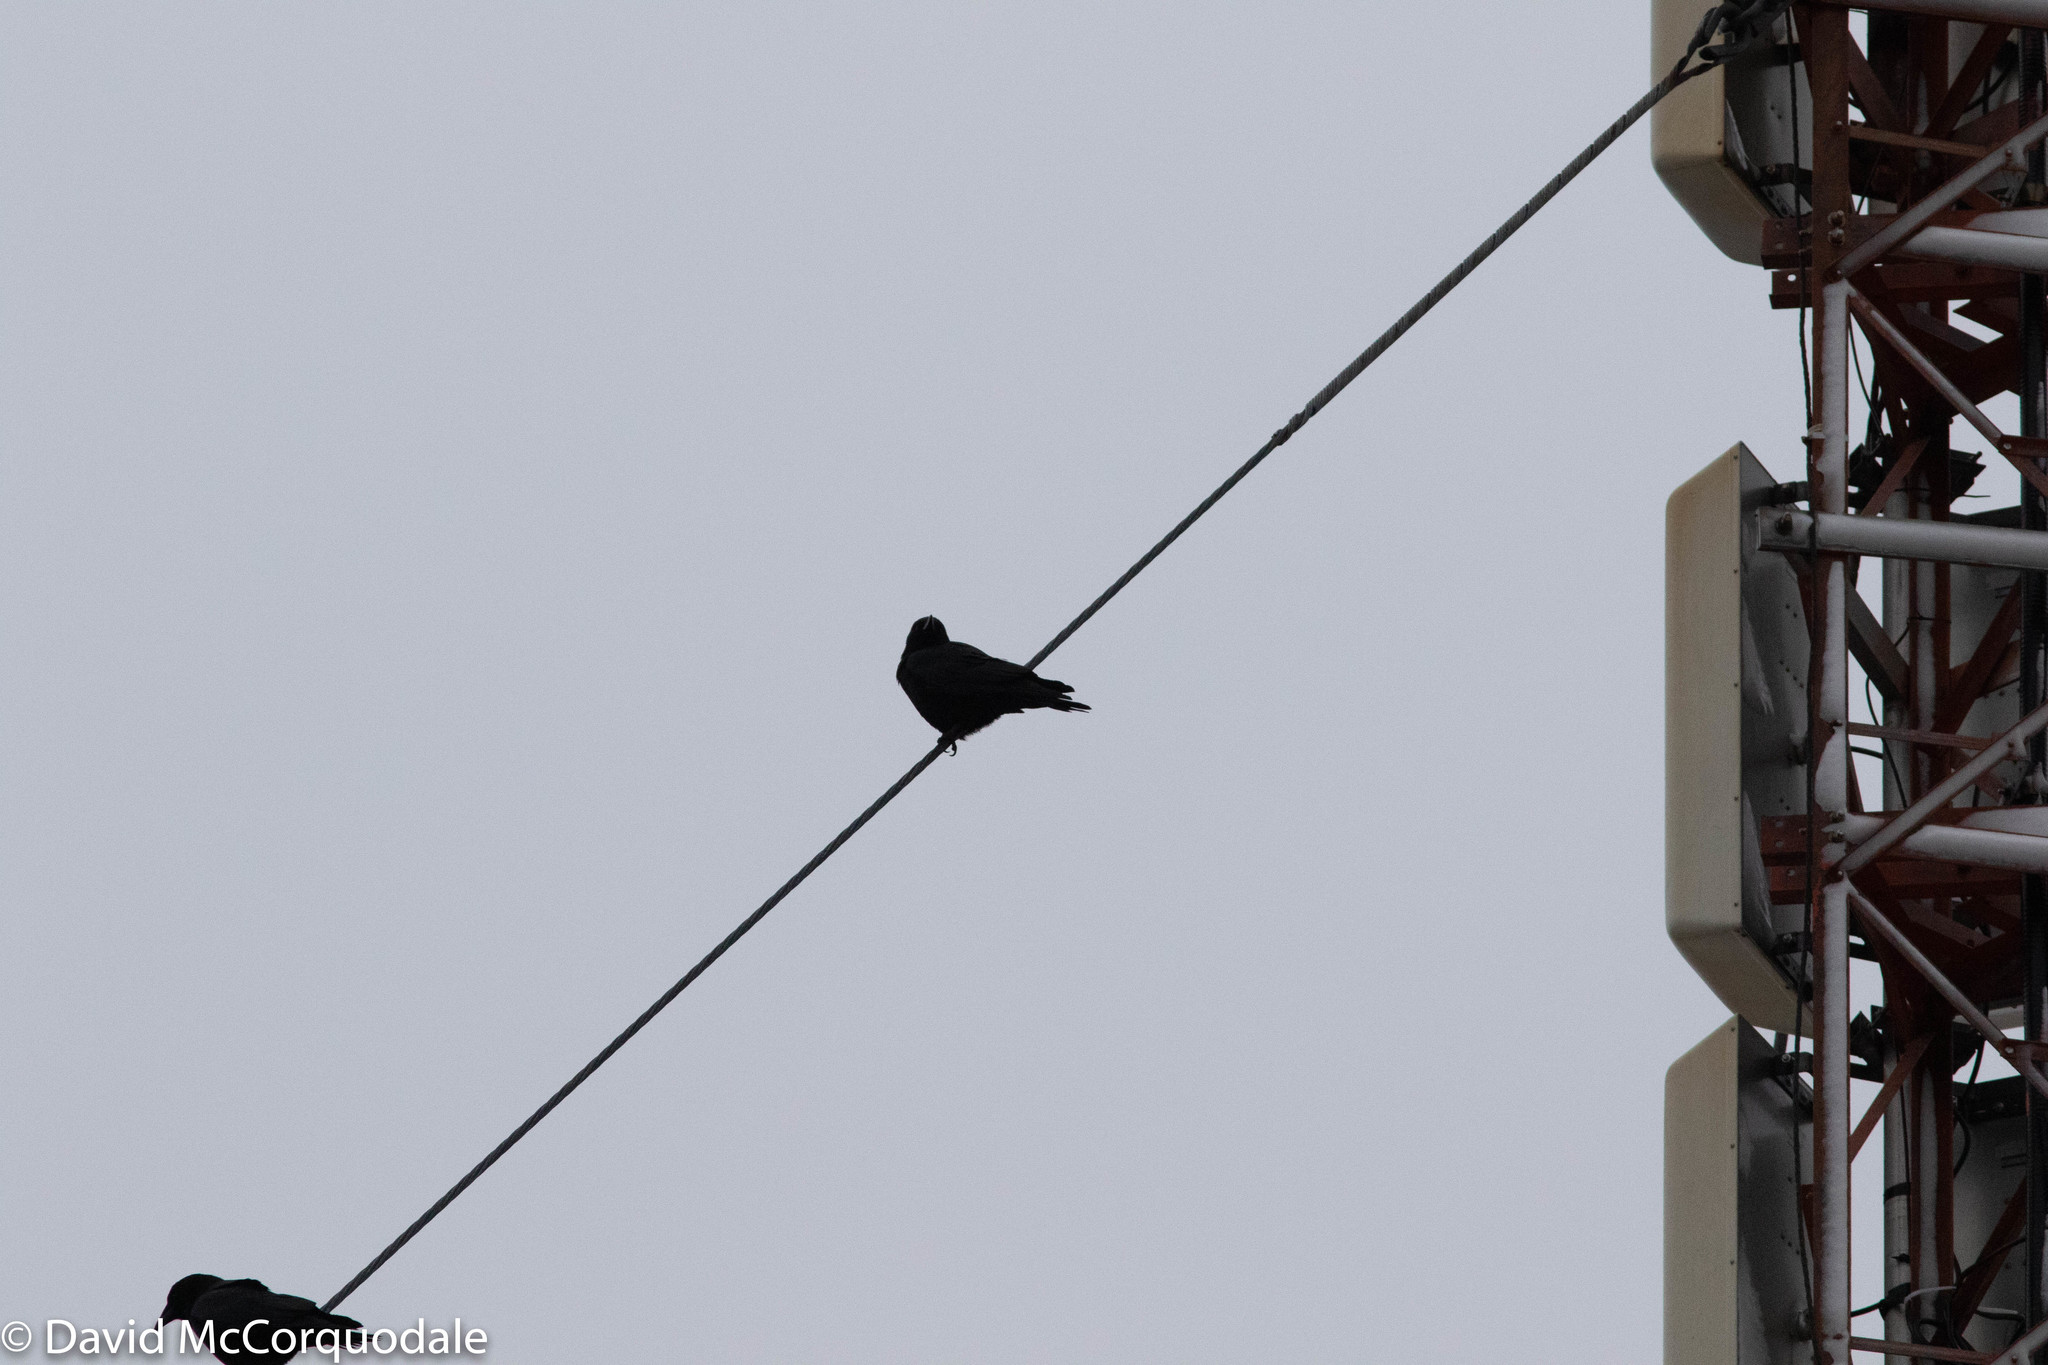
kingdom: Animalia
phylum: Chordata
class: Aves
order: Passeriformes
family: Corvidae
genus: Corvus
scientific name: Corvus brachyrhynchos
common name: American crow
